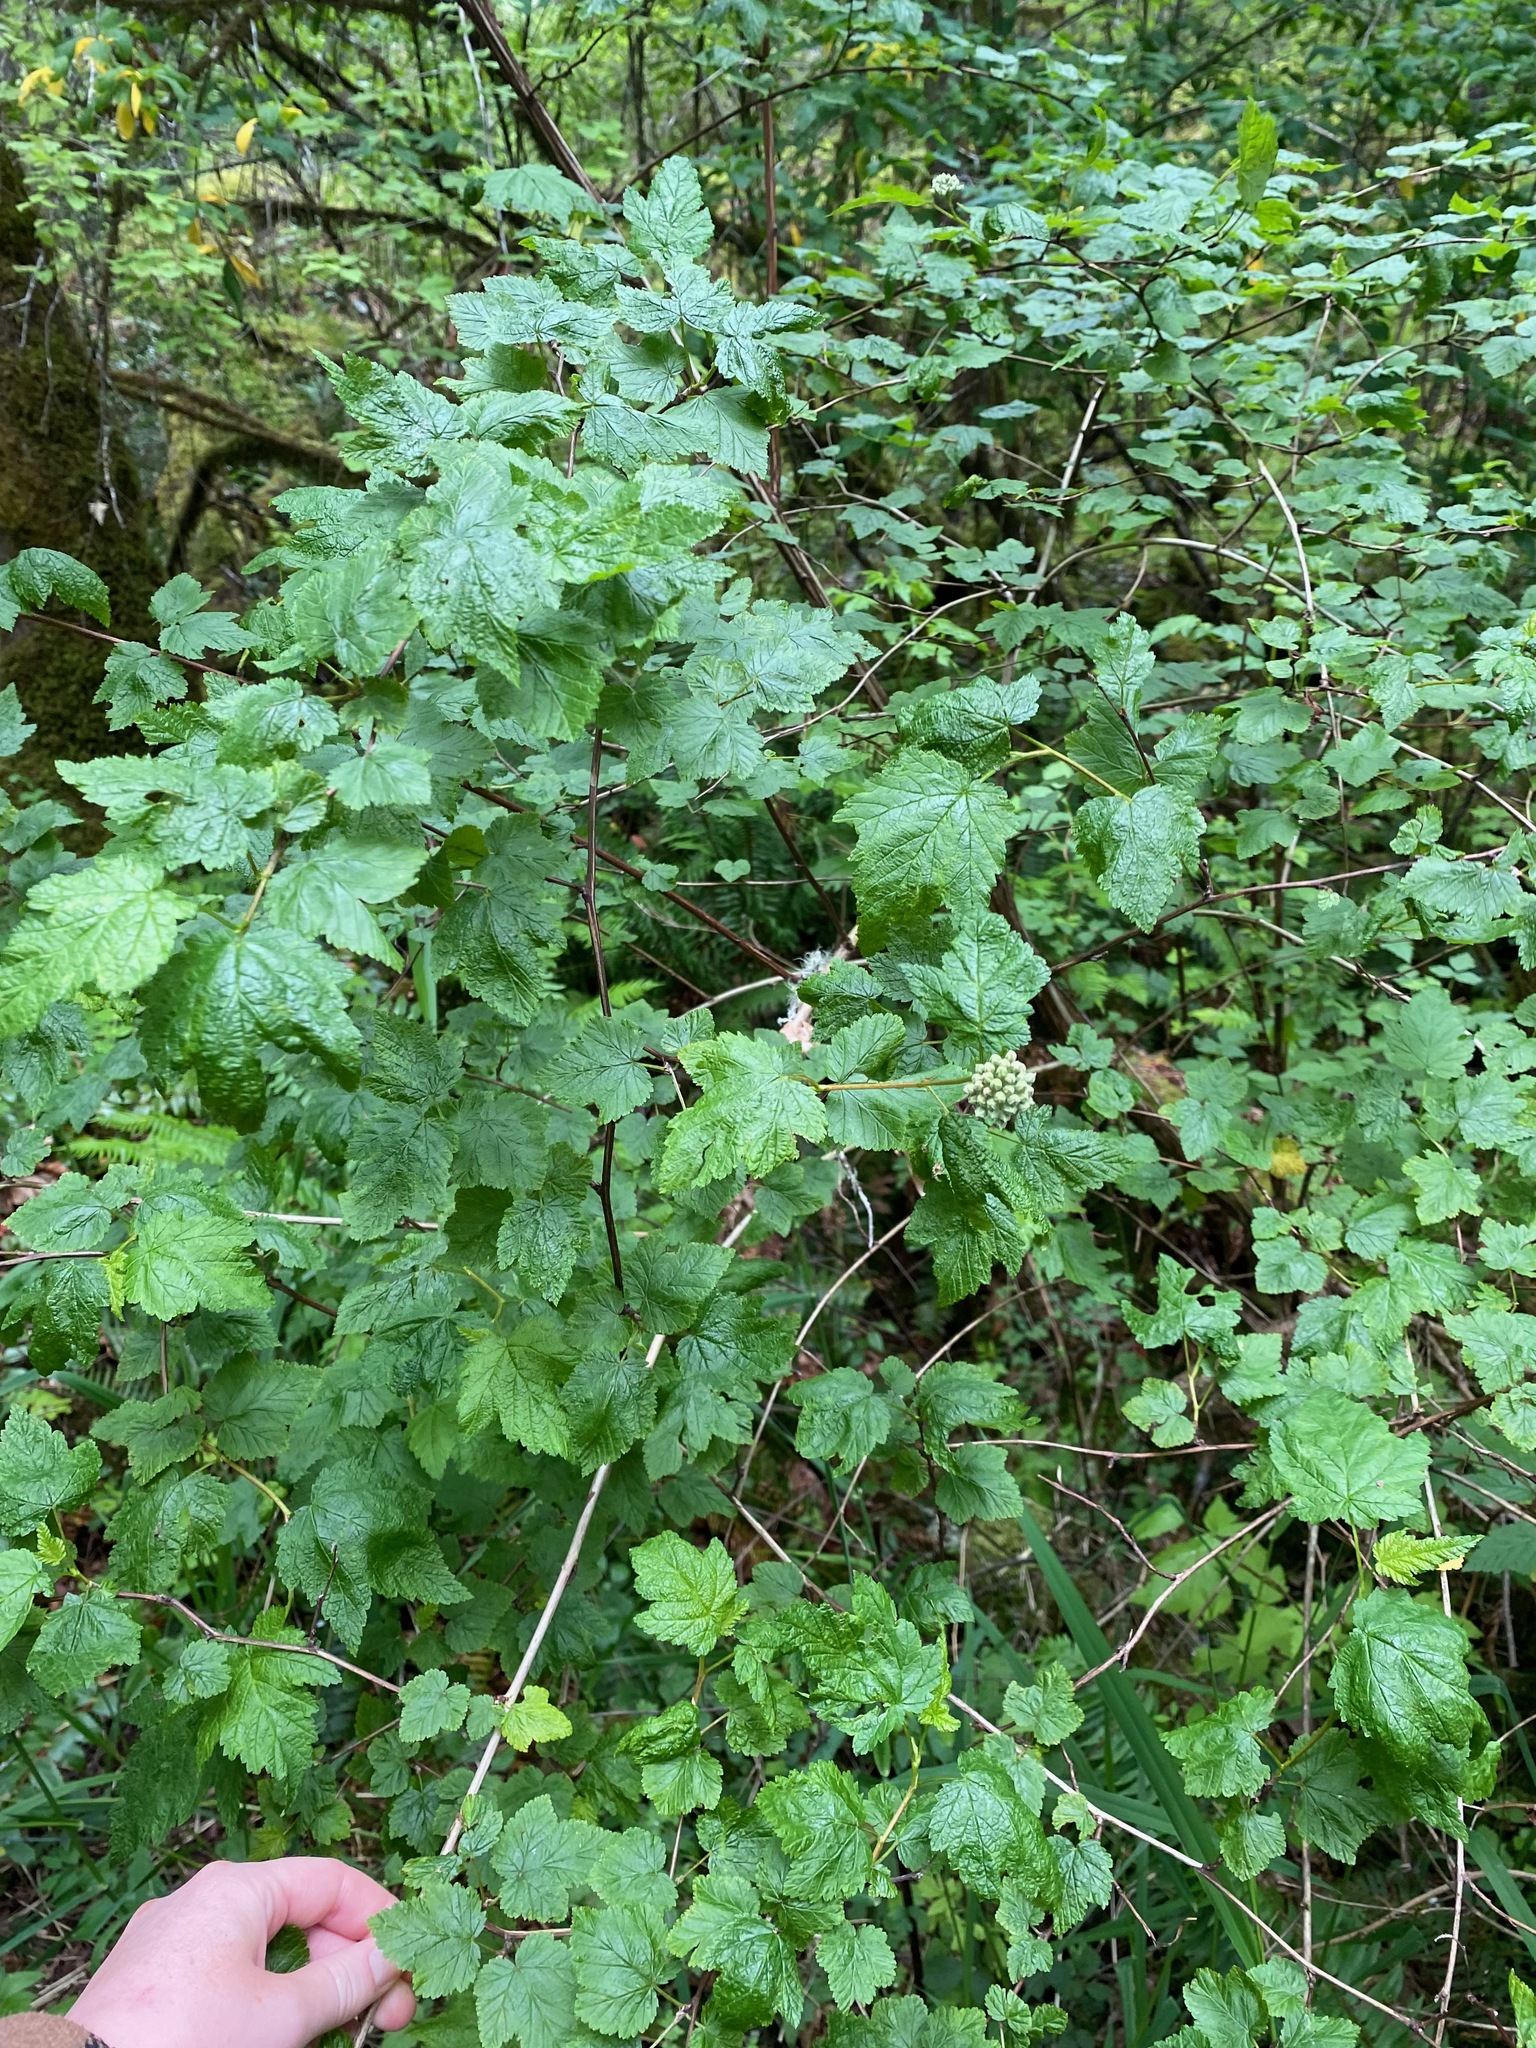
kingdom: Plantae
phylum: Tracheophyta
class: Magnoliopsida
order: Rosales
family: Rosaceae
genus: Physocarpus
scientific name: Physocarpus capitatus
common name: Pacific ninebark
